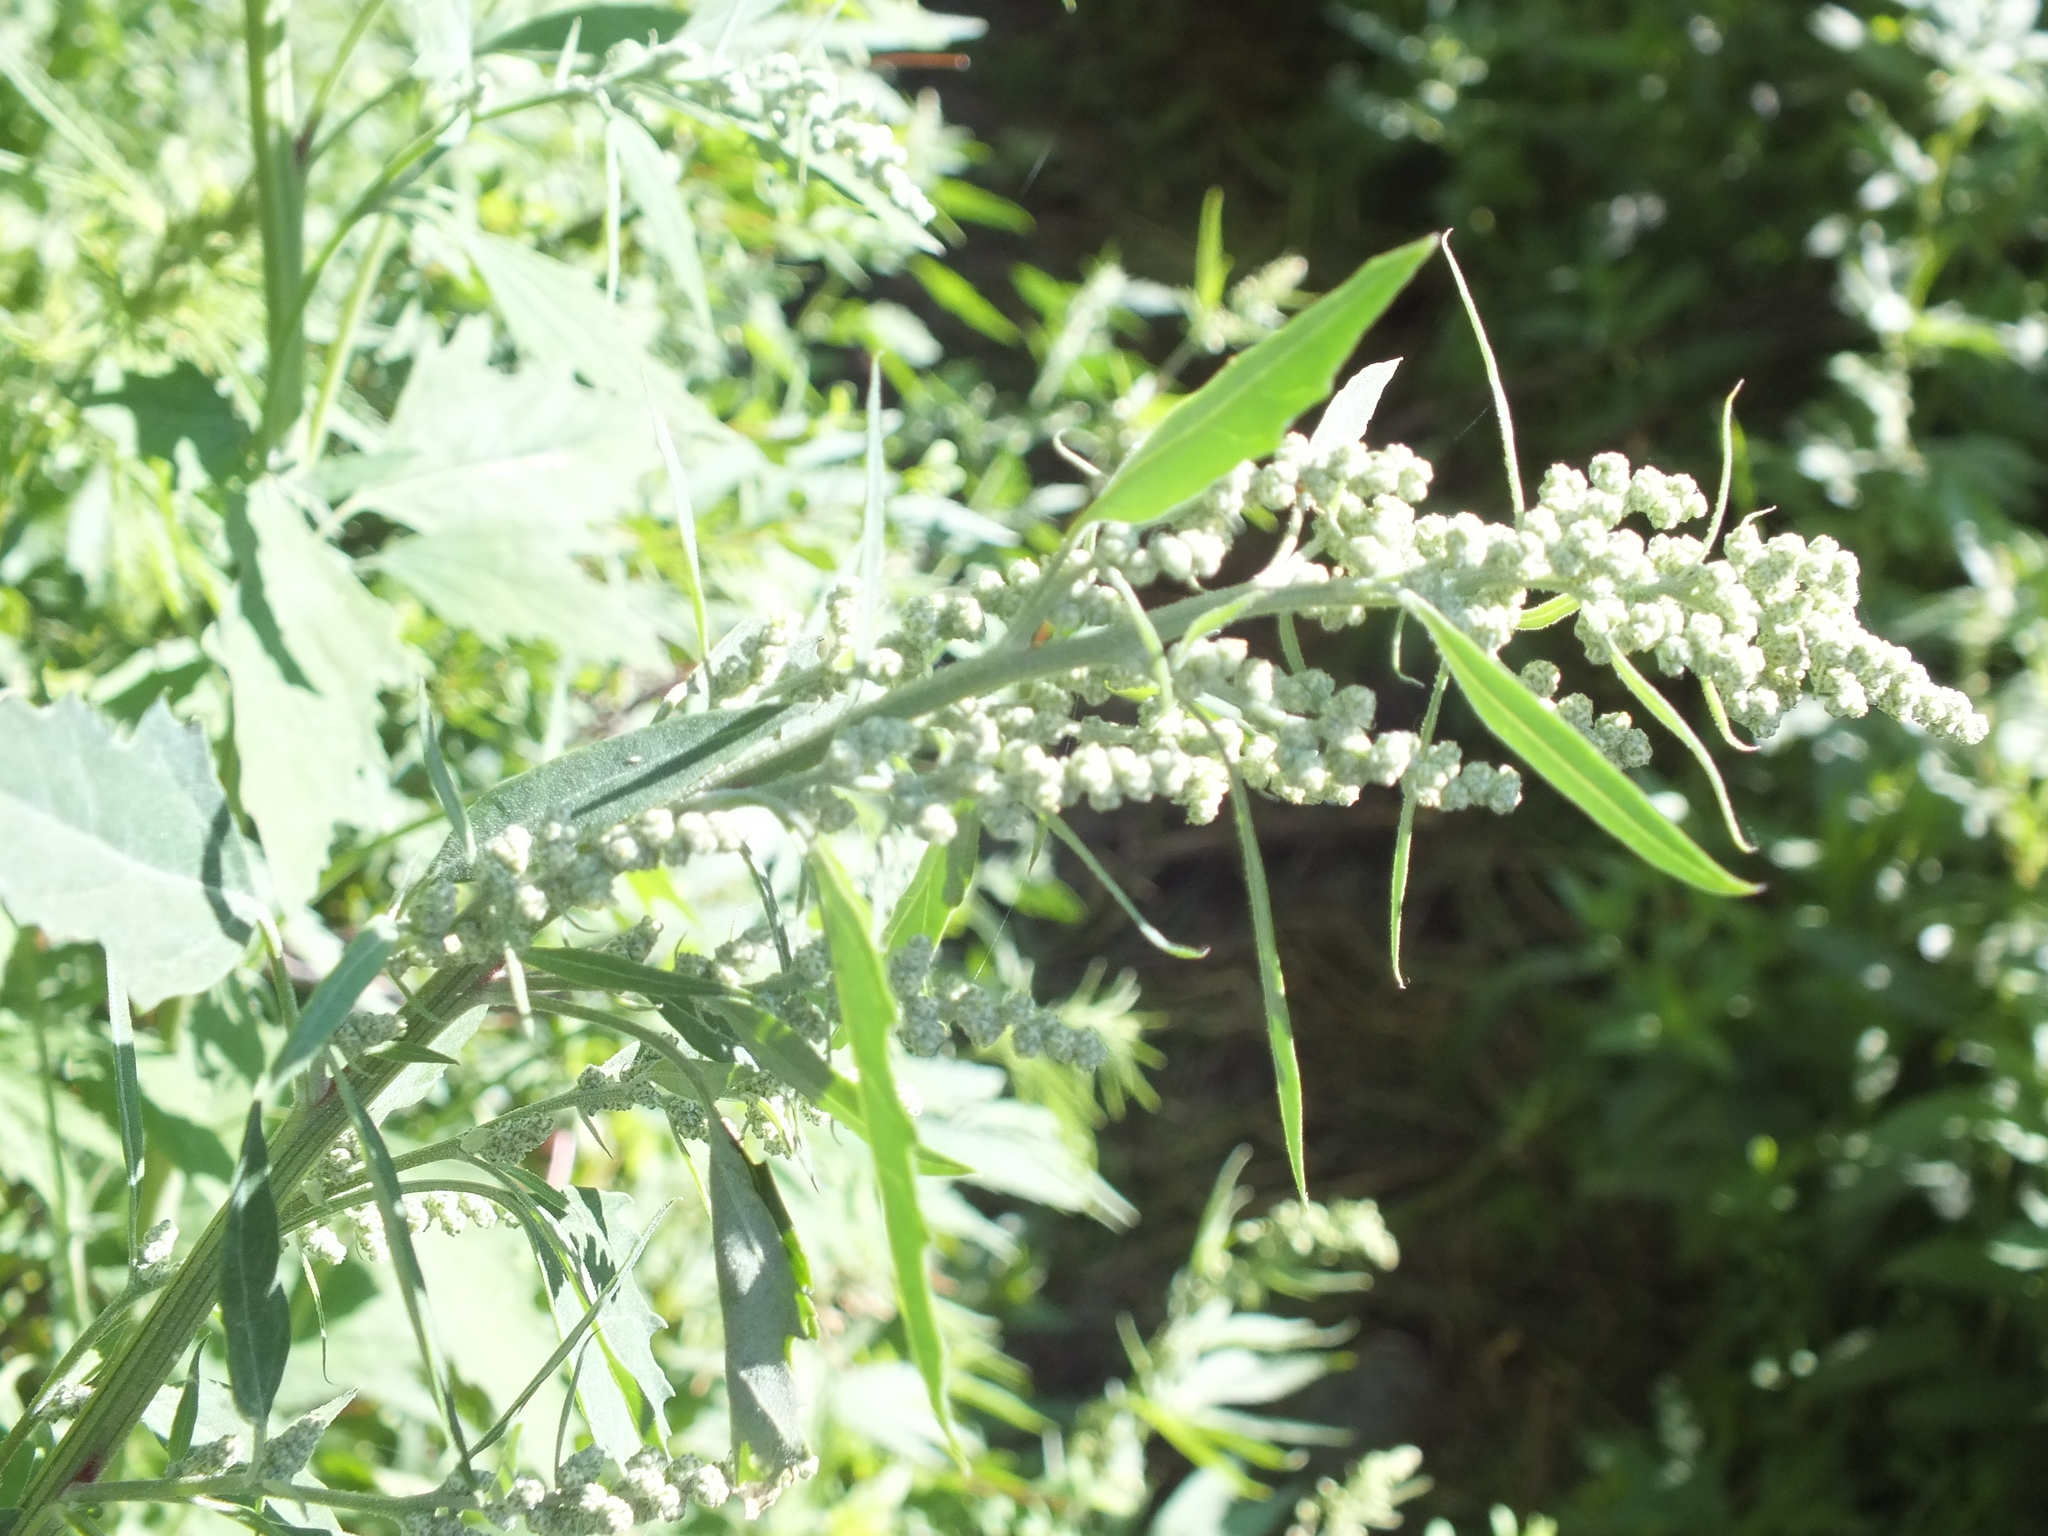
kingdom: Plantae
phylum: Tracheophyta
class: Magnoliopsida
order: Caryophyllales
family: Amaranthaceae
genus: Chenopodium
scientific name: Chenopodium album
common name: Fat-hen
